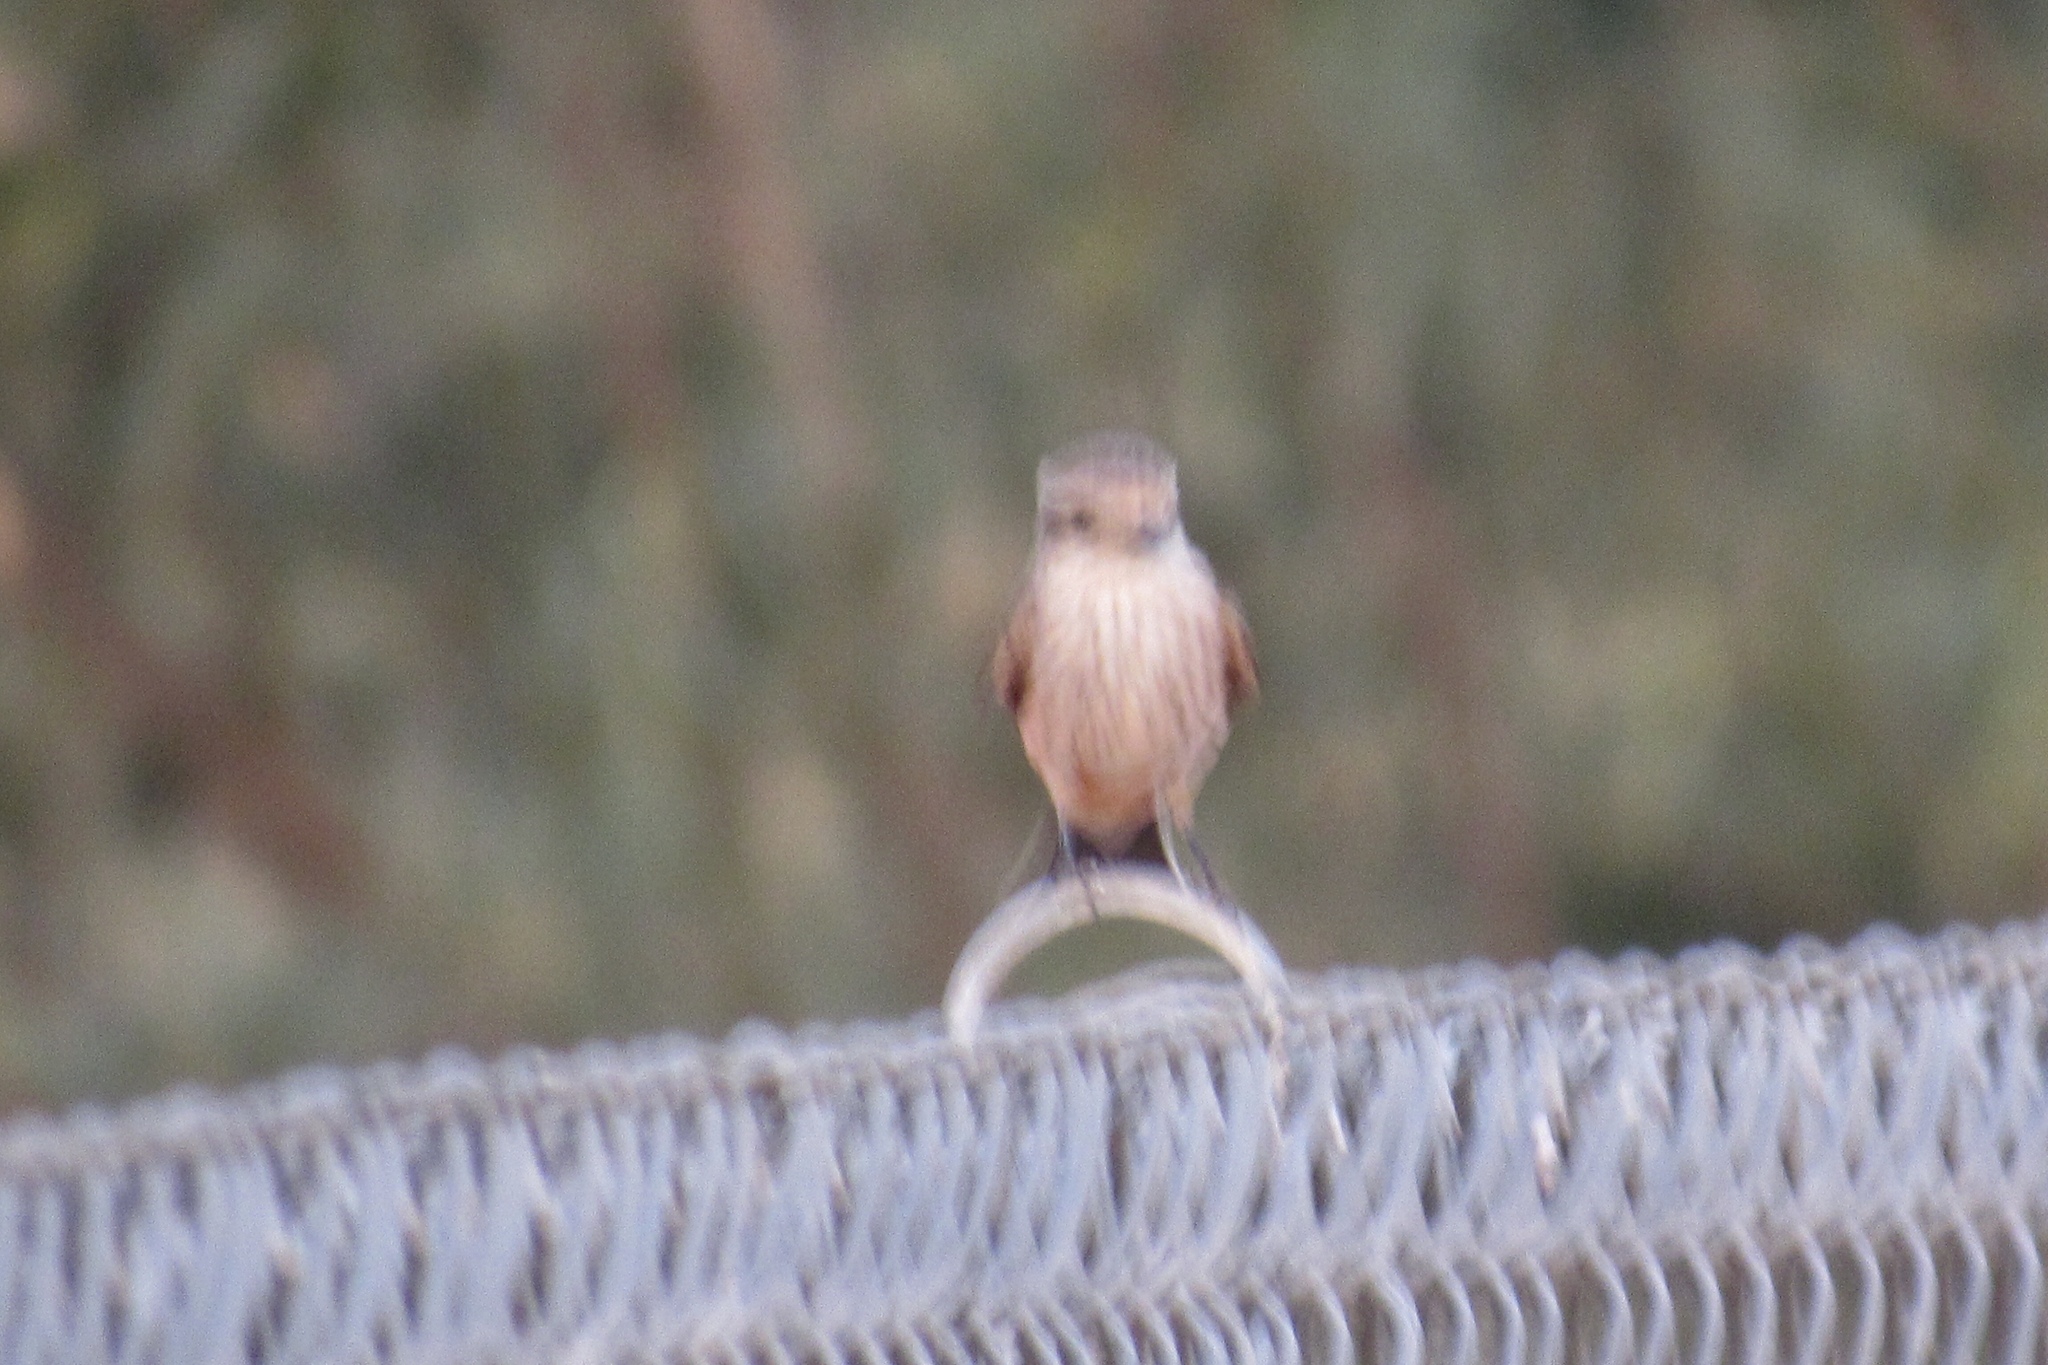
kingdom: Animalia
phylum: Chordata
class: Aves
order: Passeriformes
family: Tyrannidae
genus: Pyrocephalus
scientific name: Pyrocephalus rubinus
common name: Vermilion flycatcher
